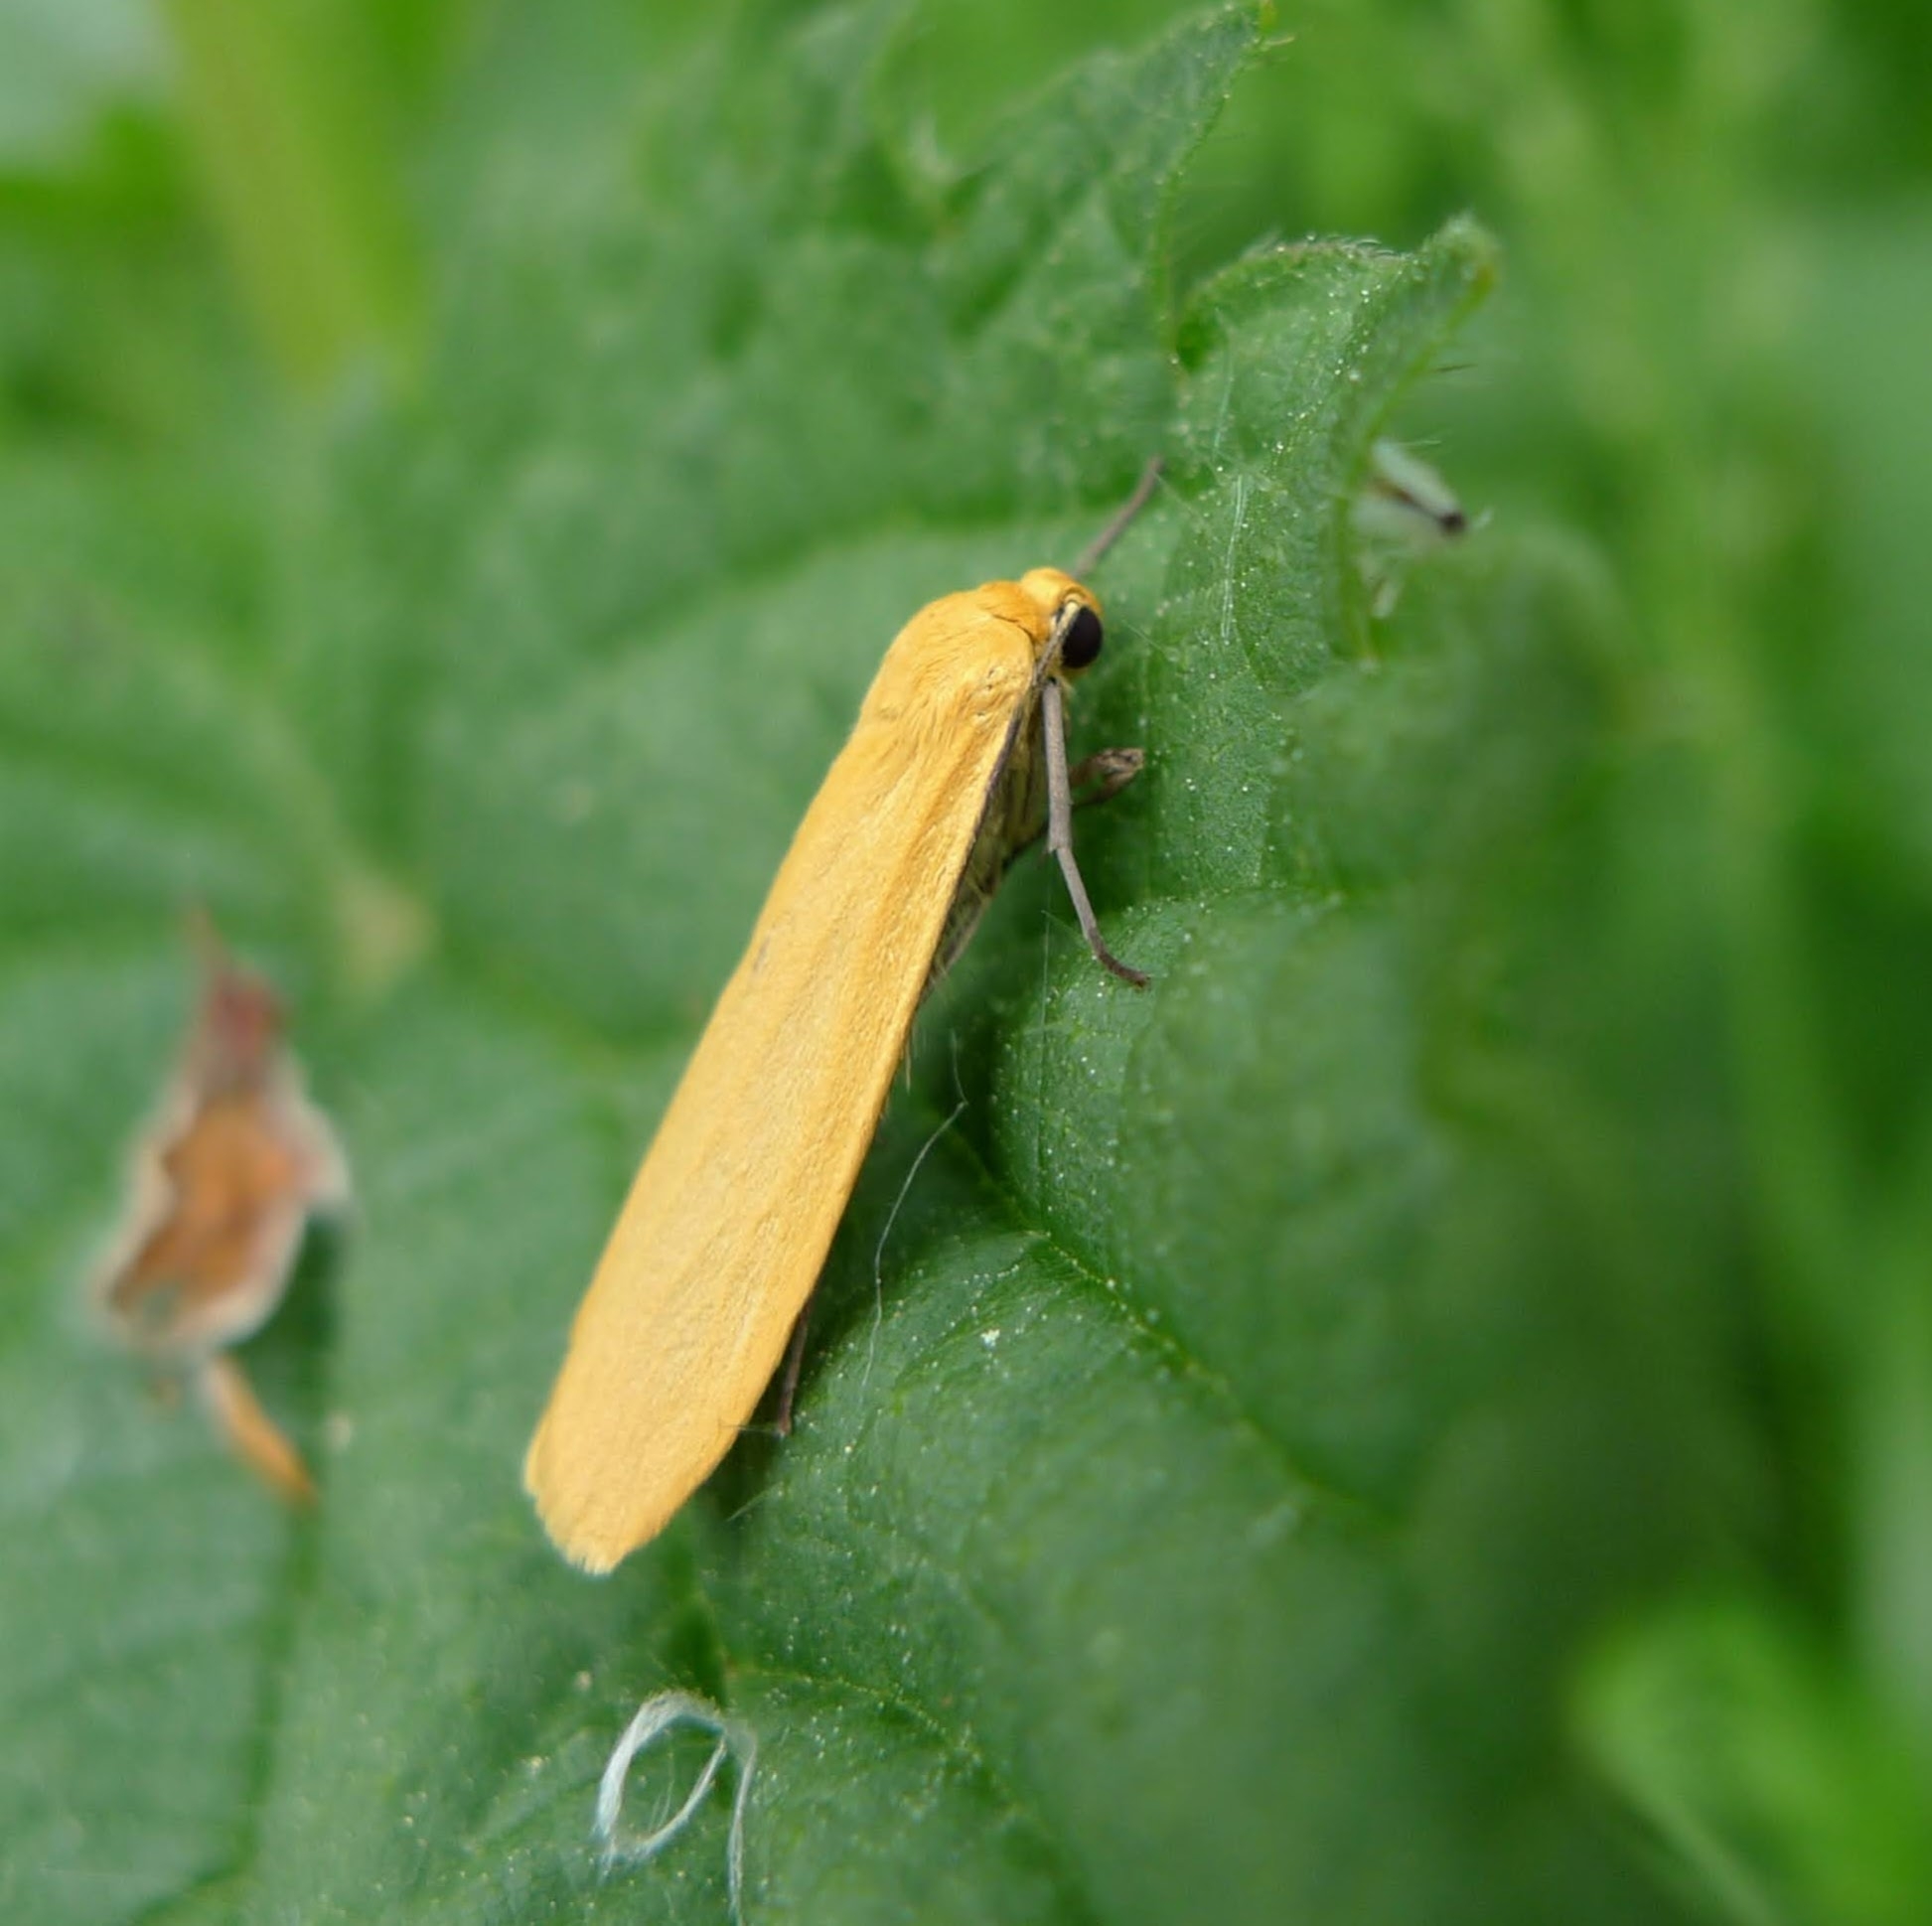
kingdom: Animalia
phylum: Arthropoda
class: Insecta
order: Lepidoptera
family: Erebidae
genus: Wittia
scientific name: Wittia sororcula
